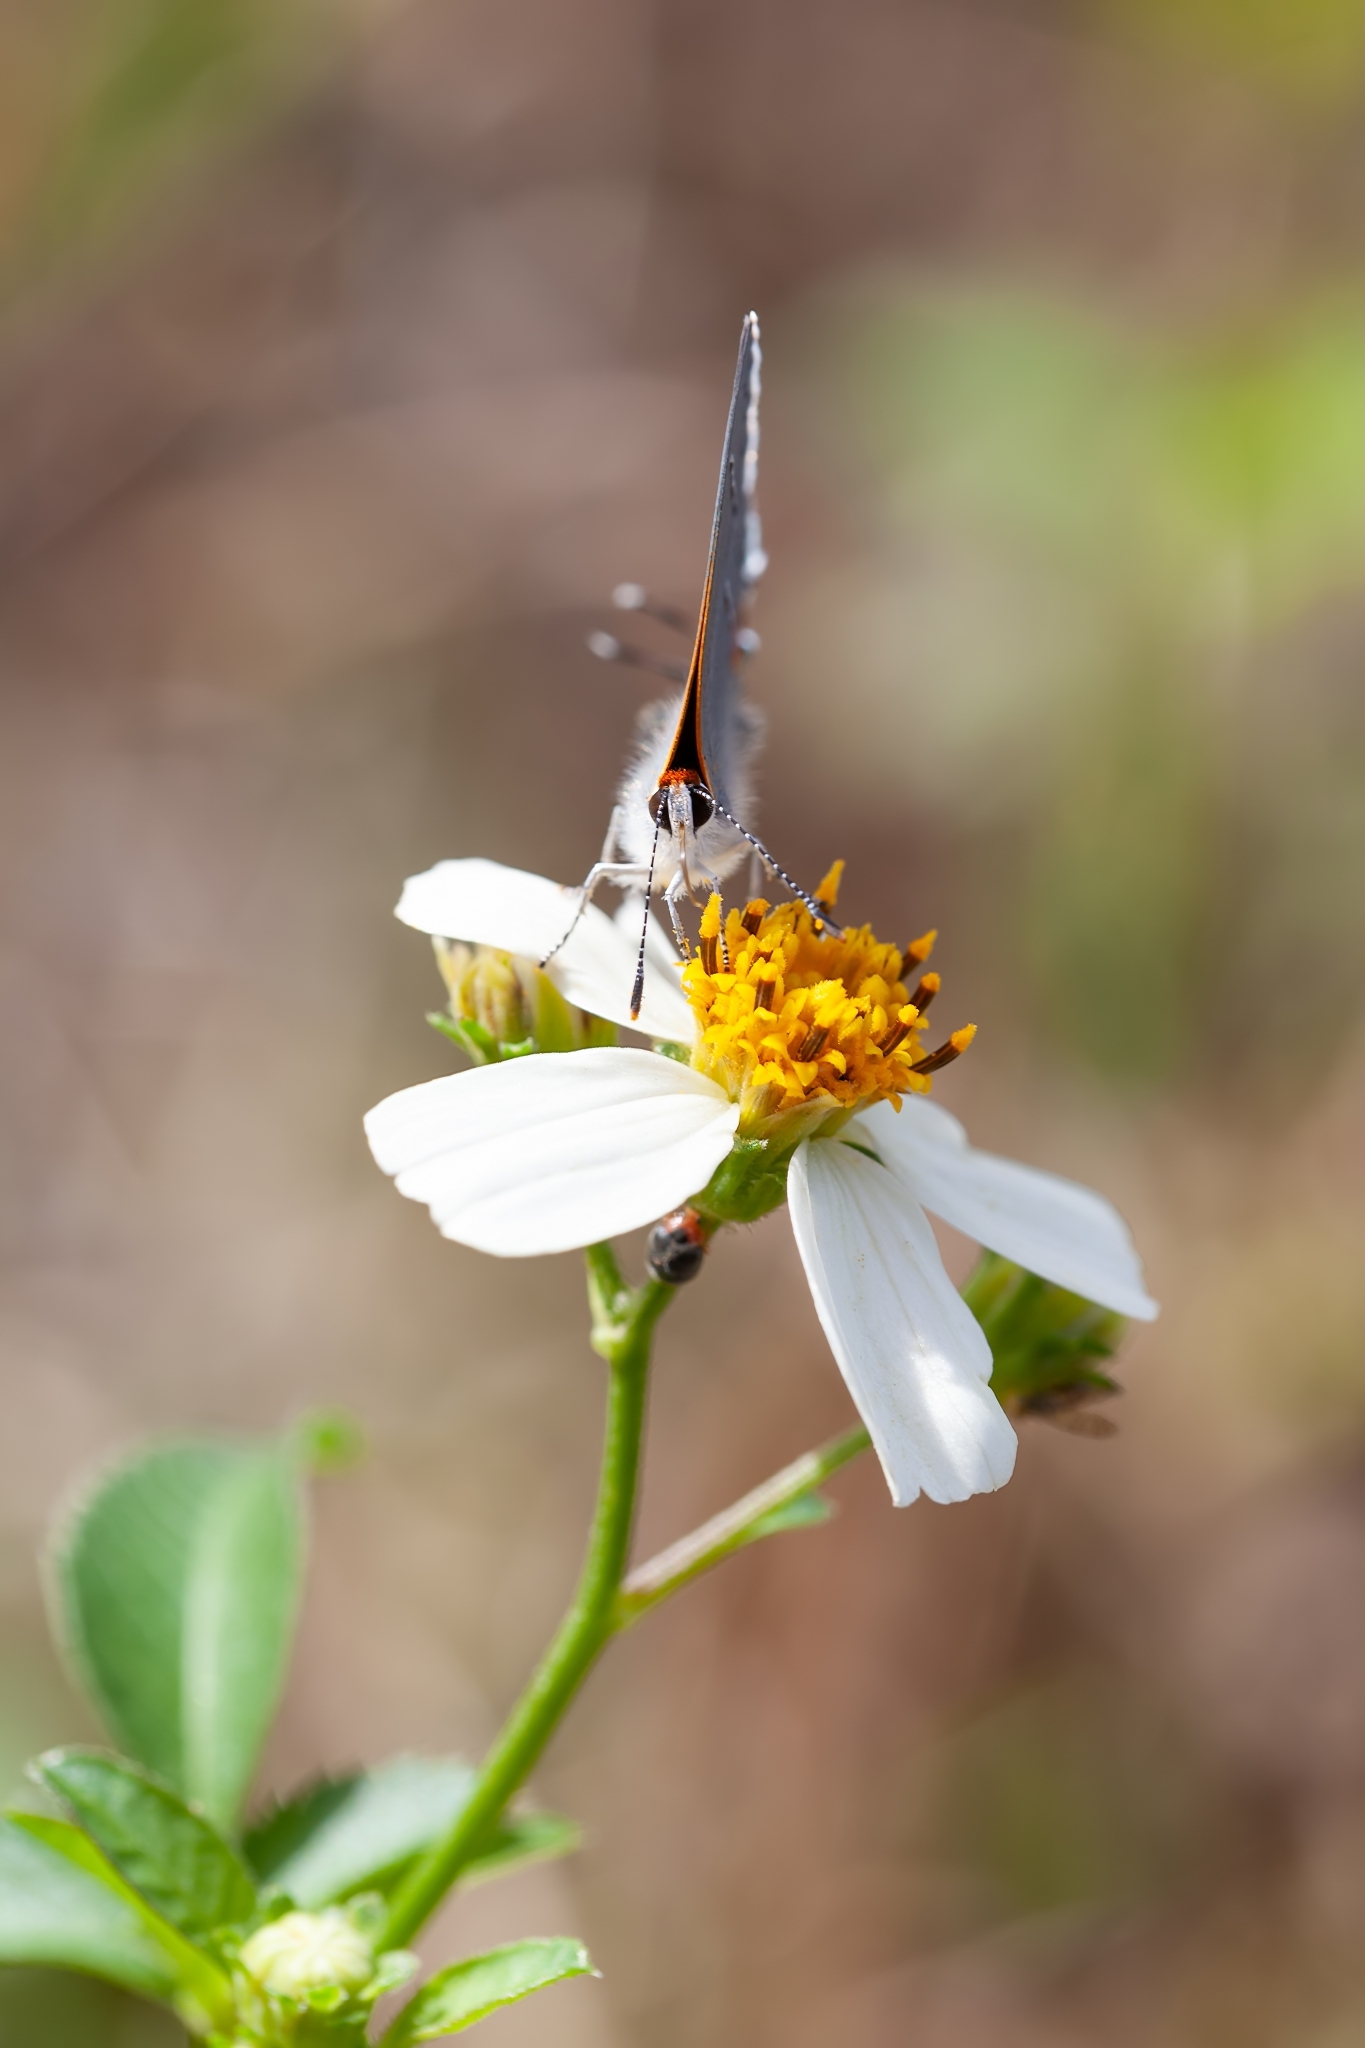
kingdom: Animalia
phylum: Arthropoda
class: Insecta
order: Lepidoptera
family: Lycaenidae
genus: Strymon
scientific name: Strymon melinus
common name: Gray hairstreak
